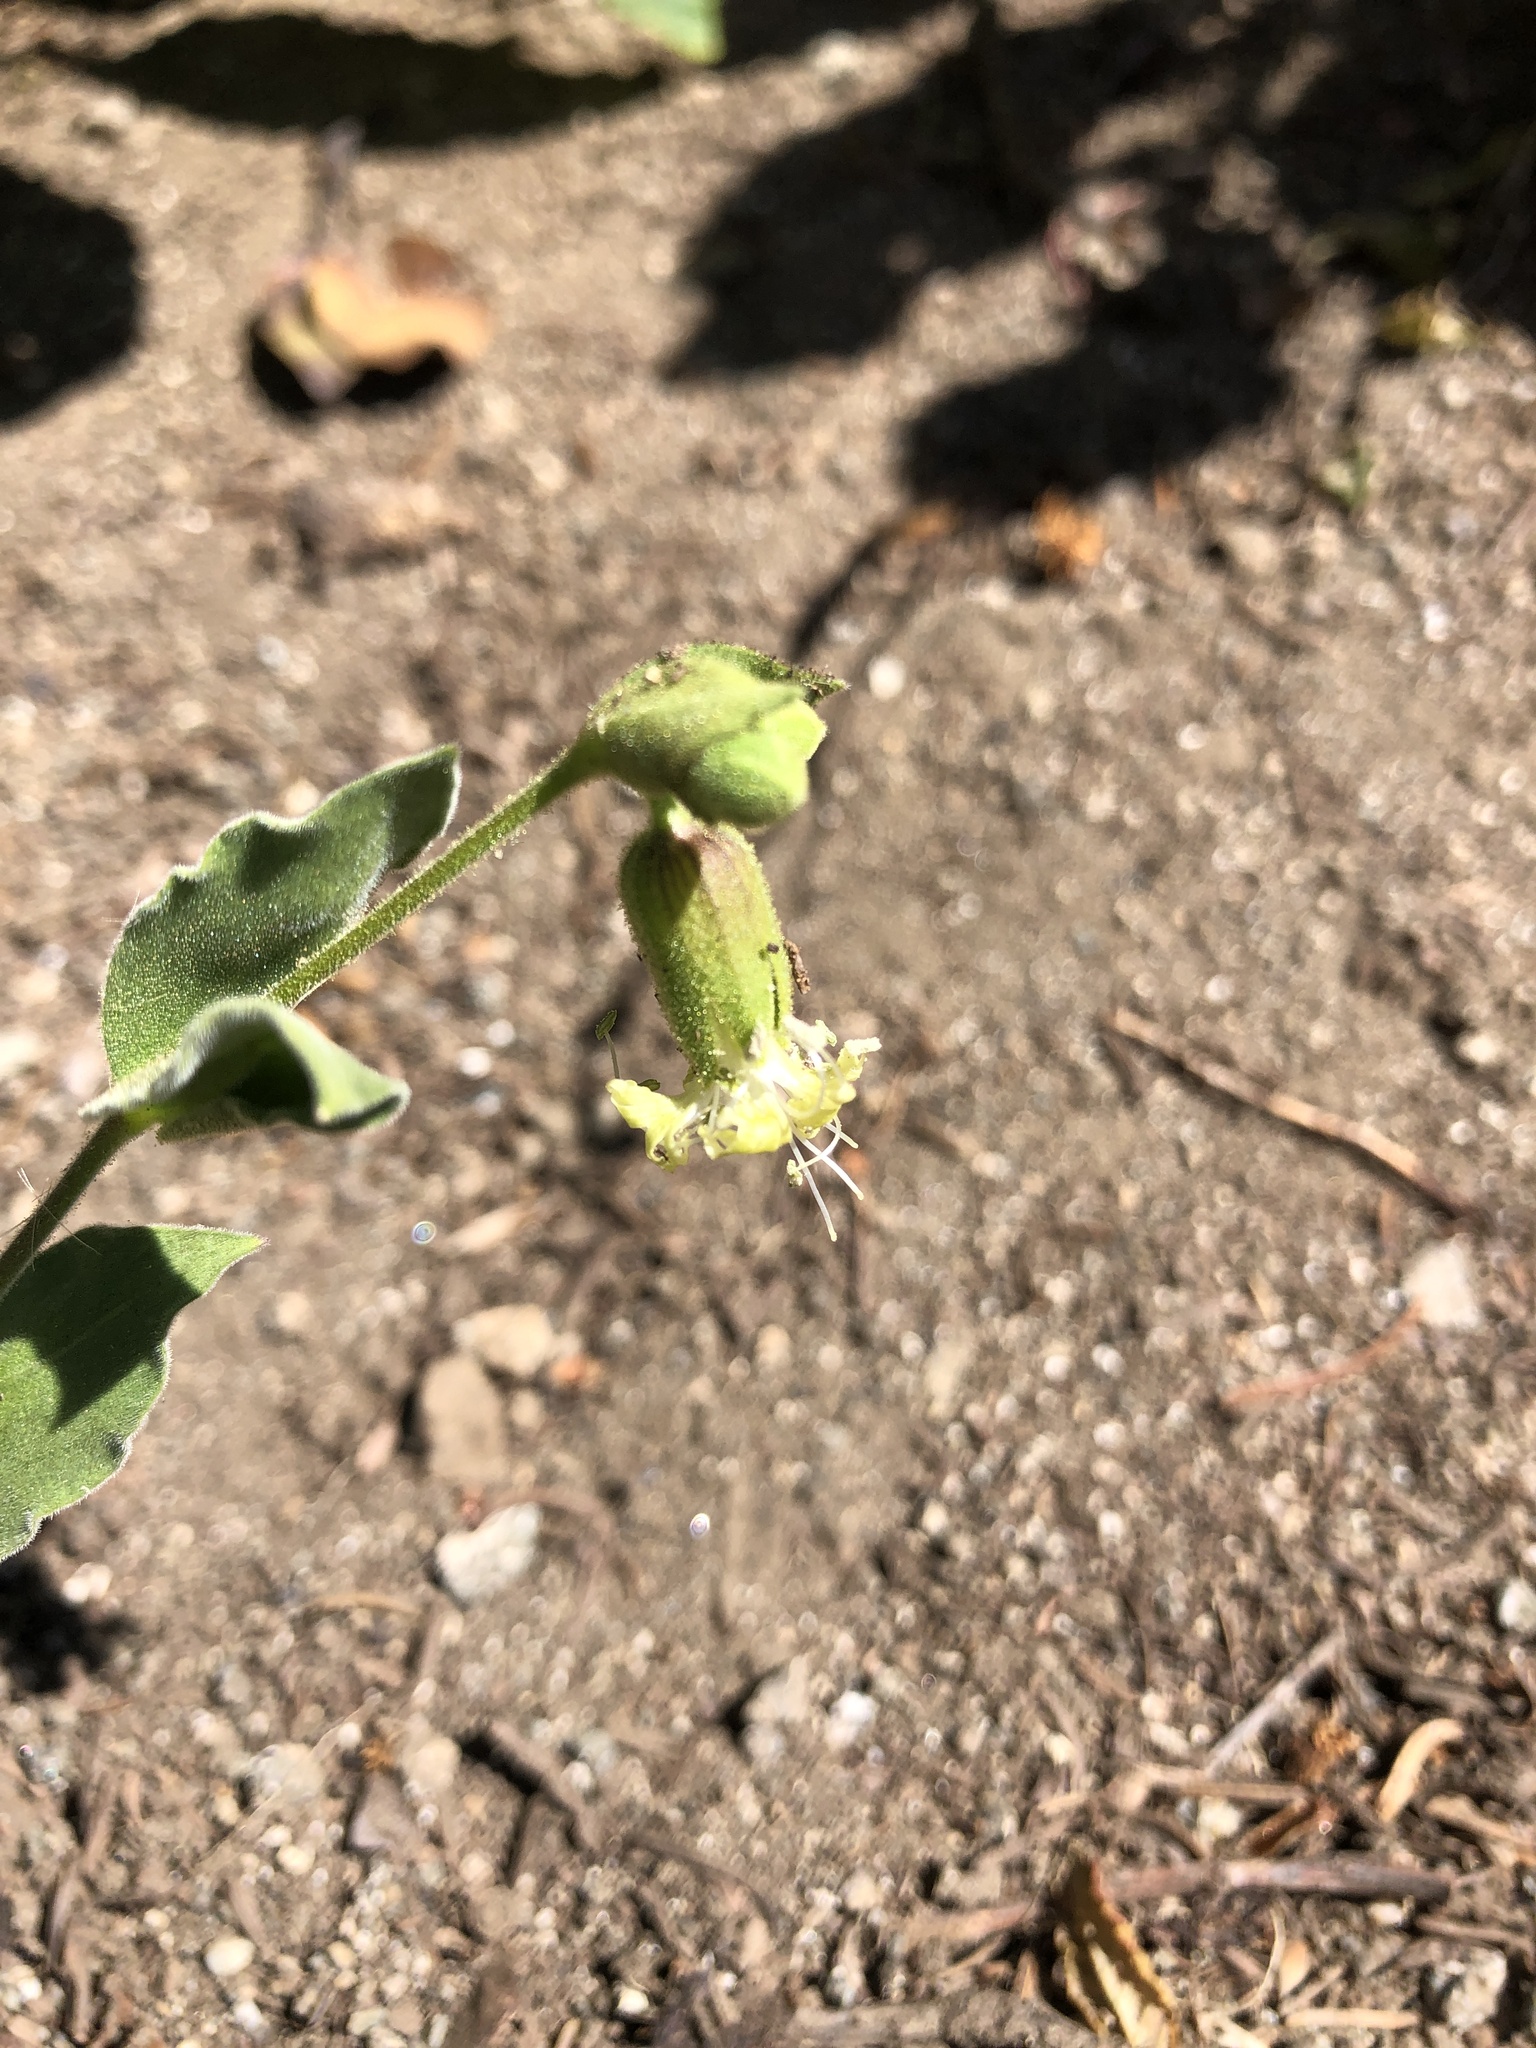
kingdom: Plantae
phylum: Tracheophyta
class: Magnoliopsida
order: Caryophyllales
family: Caryophyllaceae
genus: Silene
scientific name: Silene greenei
